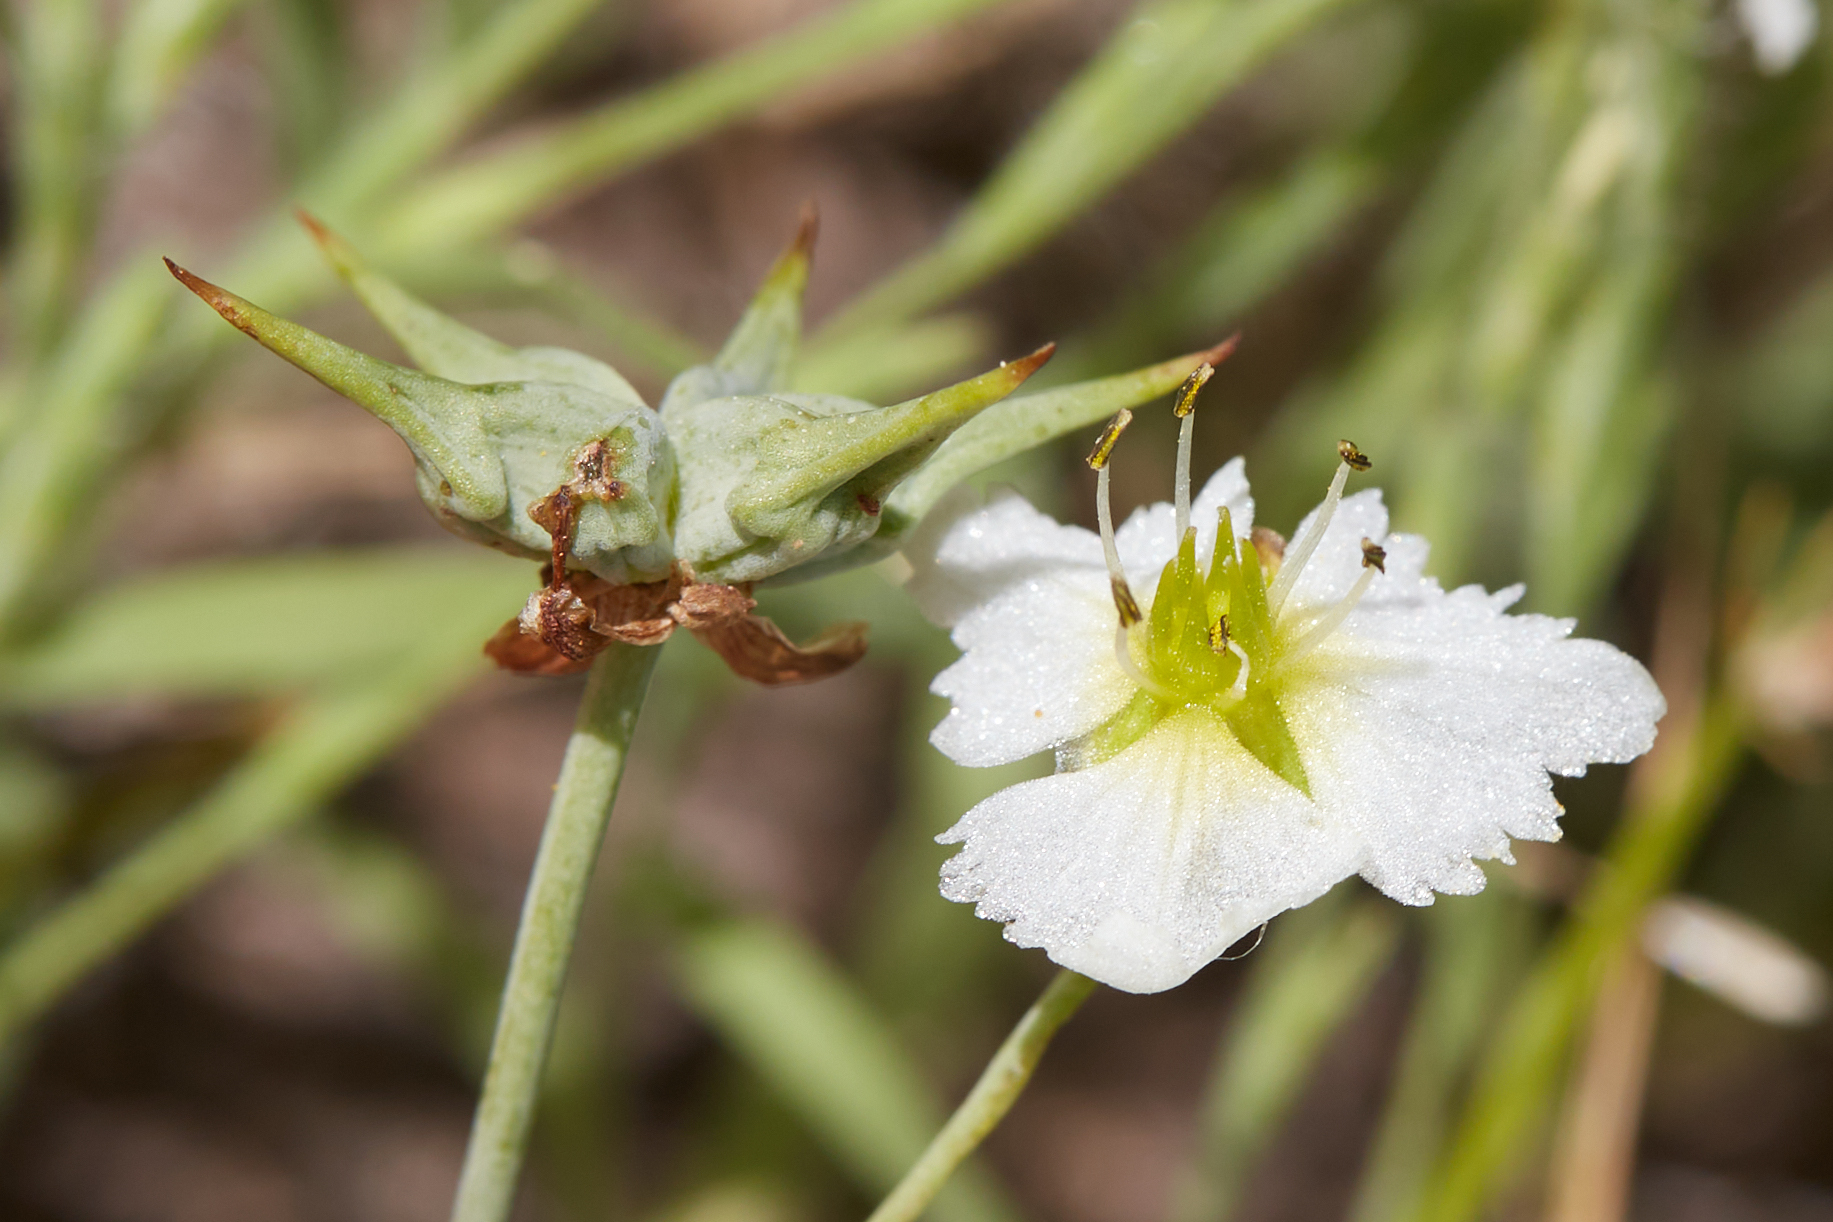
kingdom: Plantae
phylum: Tracheophyta
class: Liliopsida
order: Alismatales
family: Alismataceae
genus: Damasonium
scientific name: Damasonium californicum
